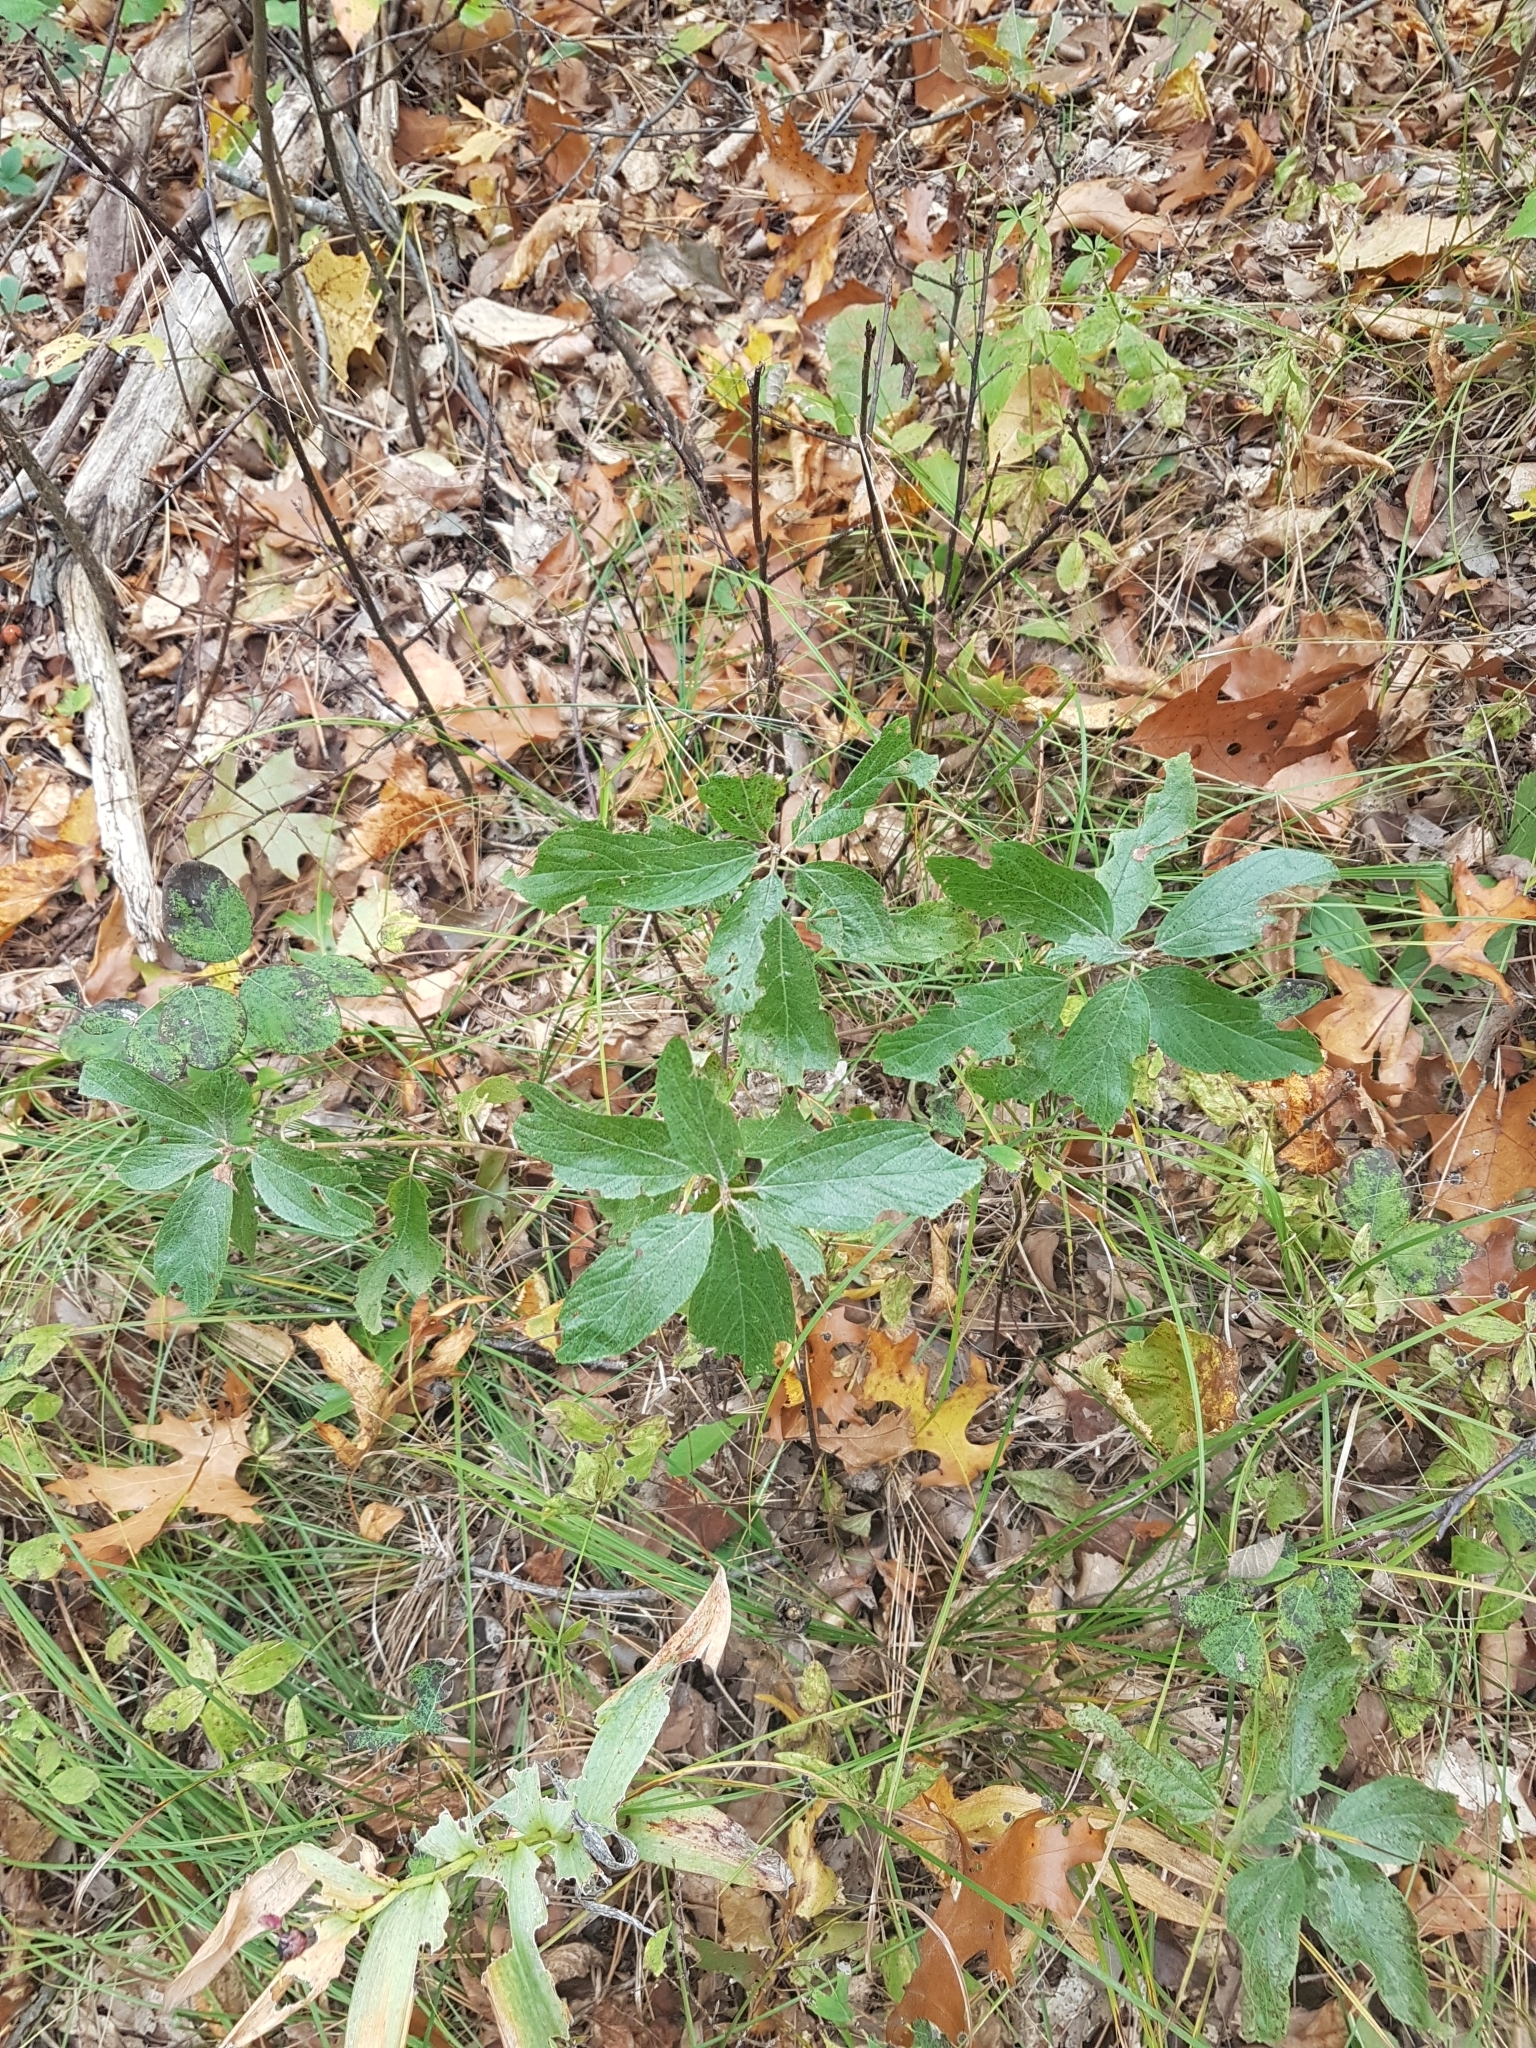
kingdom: Plantae
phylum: Tracheophyta
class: Magnoliopsida
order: Rosales
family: Rhamnaceae
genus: Rhamnus
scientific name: Rhamnus cathartica
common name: Common buckthorn
